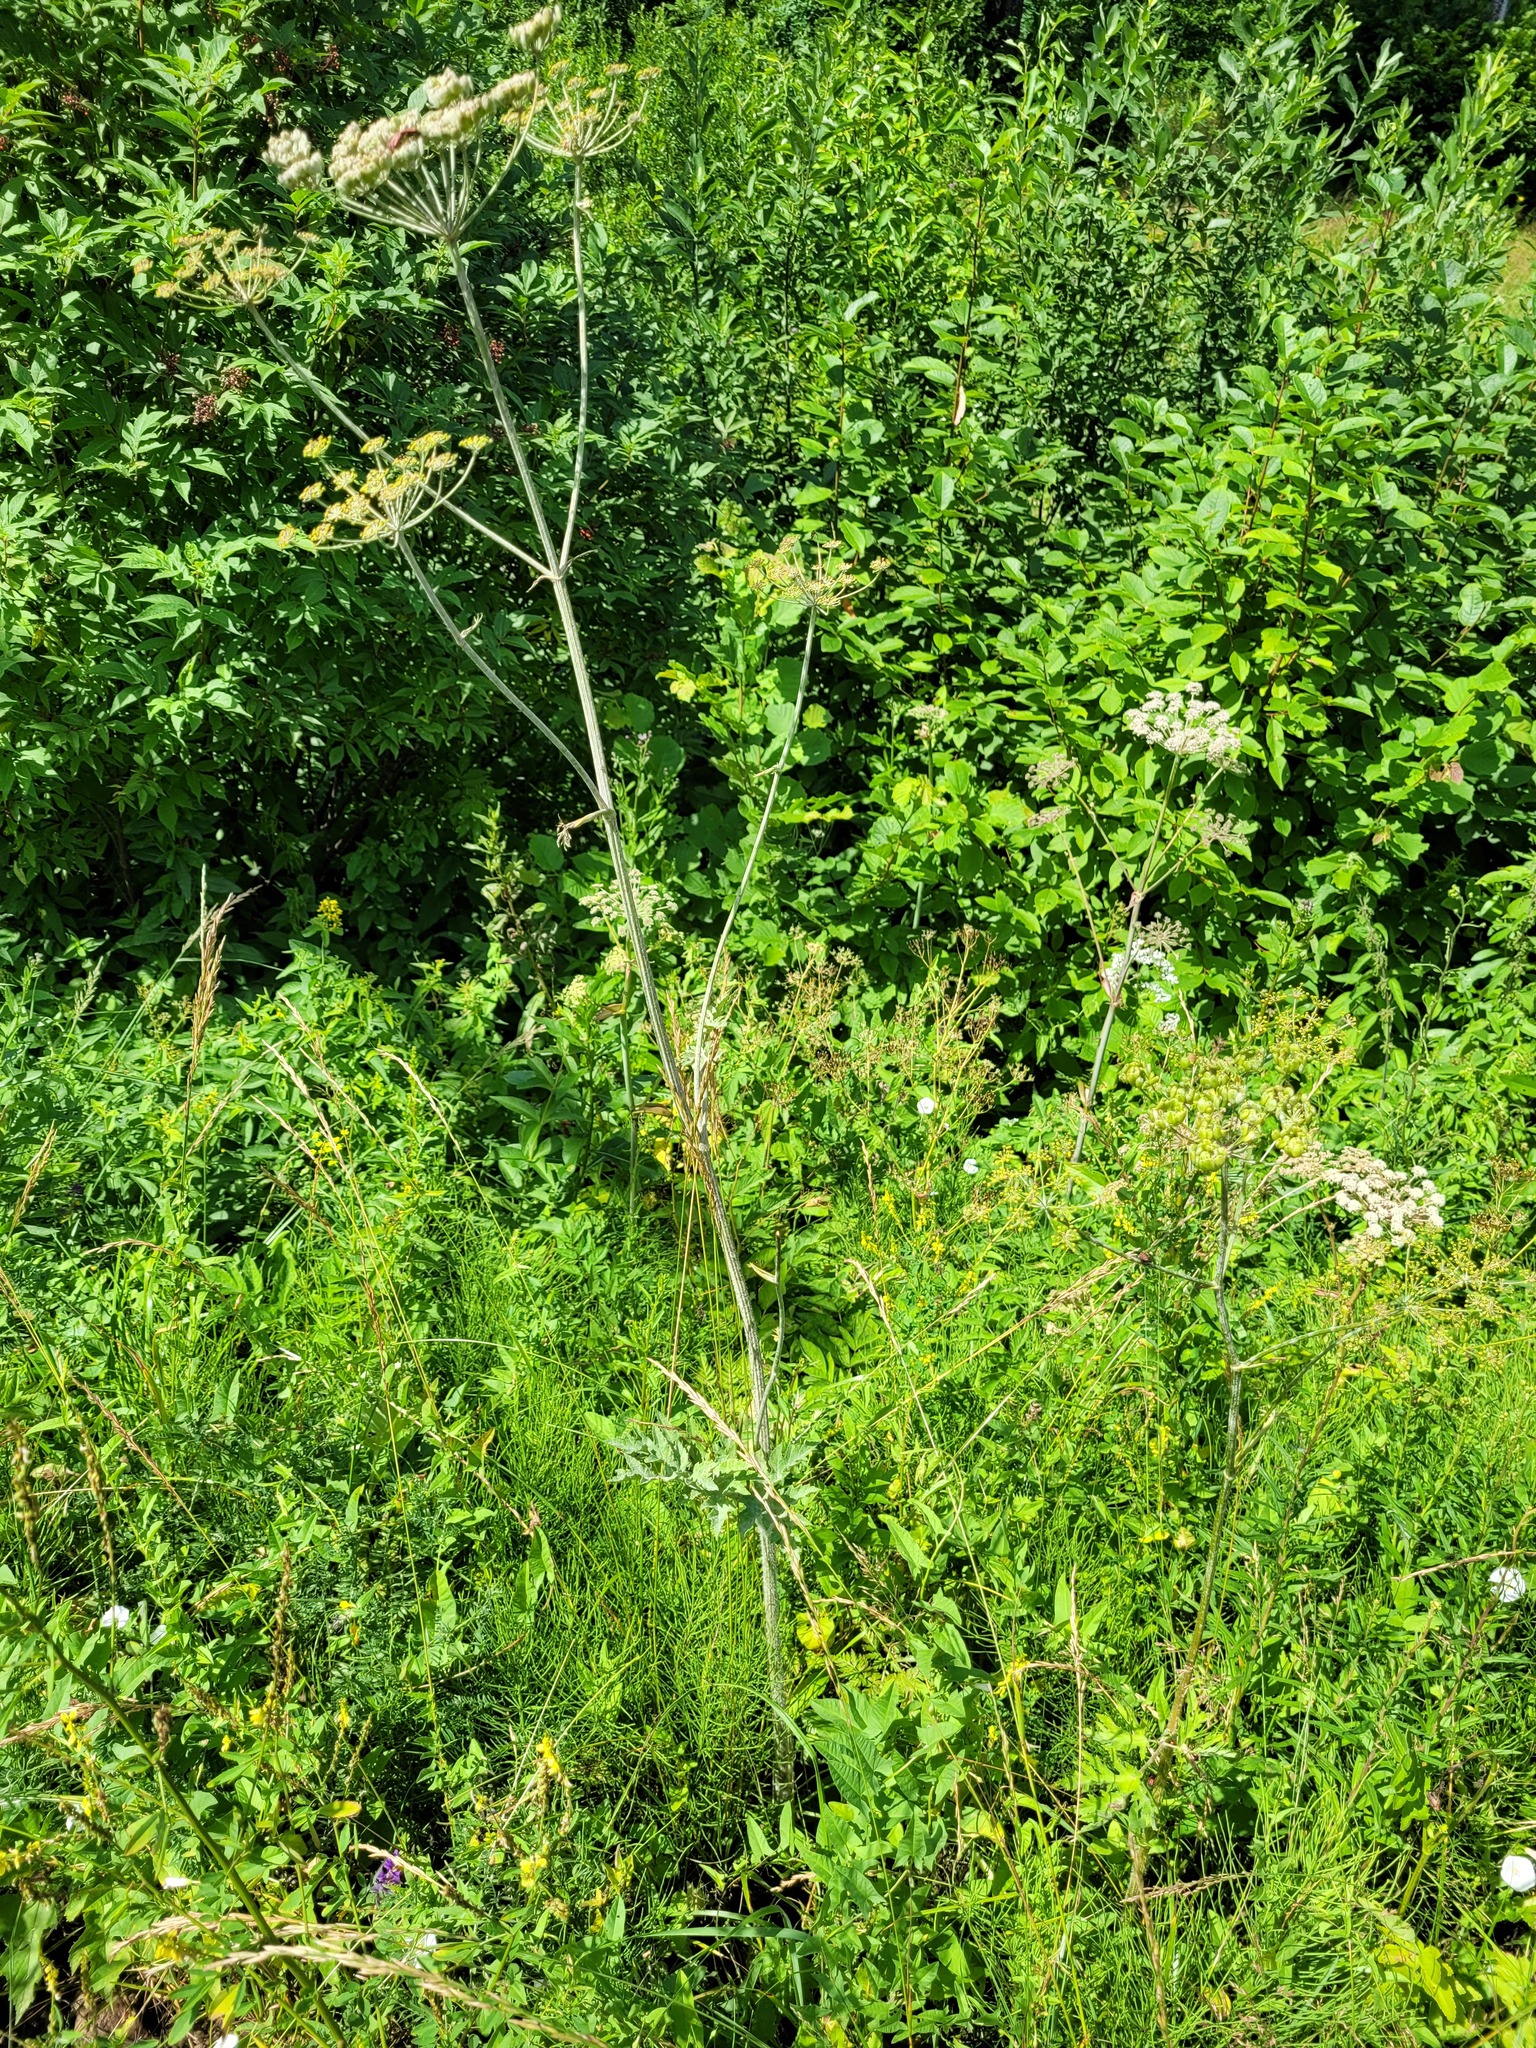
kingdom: Plantae
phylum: Tracheophyta
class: Magnoliopsida
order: Apiales
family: Apiaceae
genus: Heracleum
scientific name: Heracleum sphondylium
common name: Hogweed
